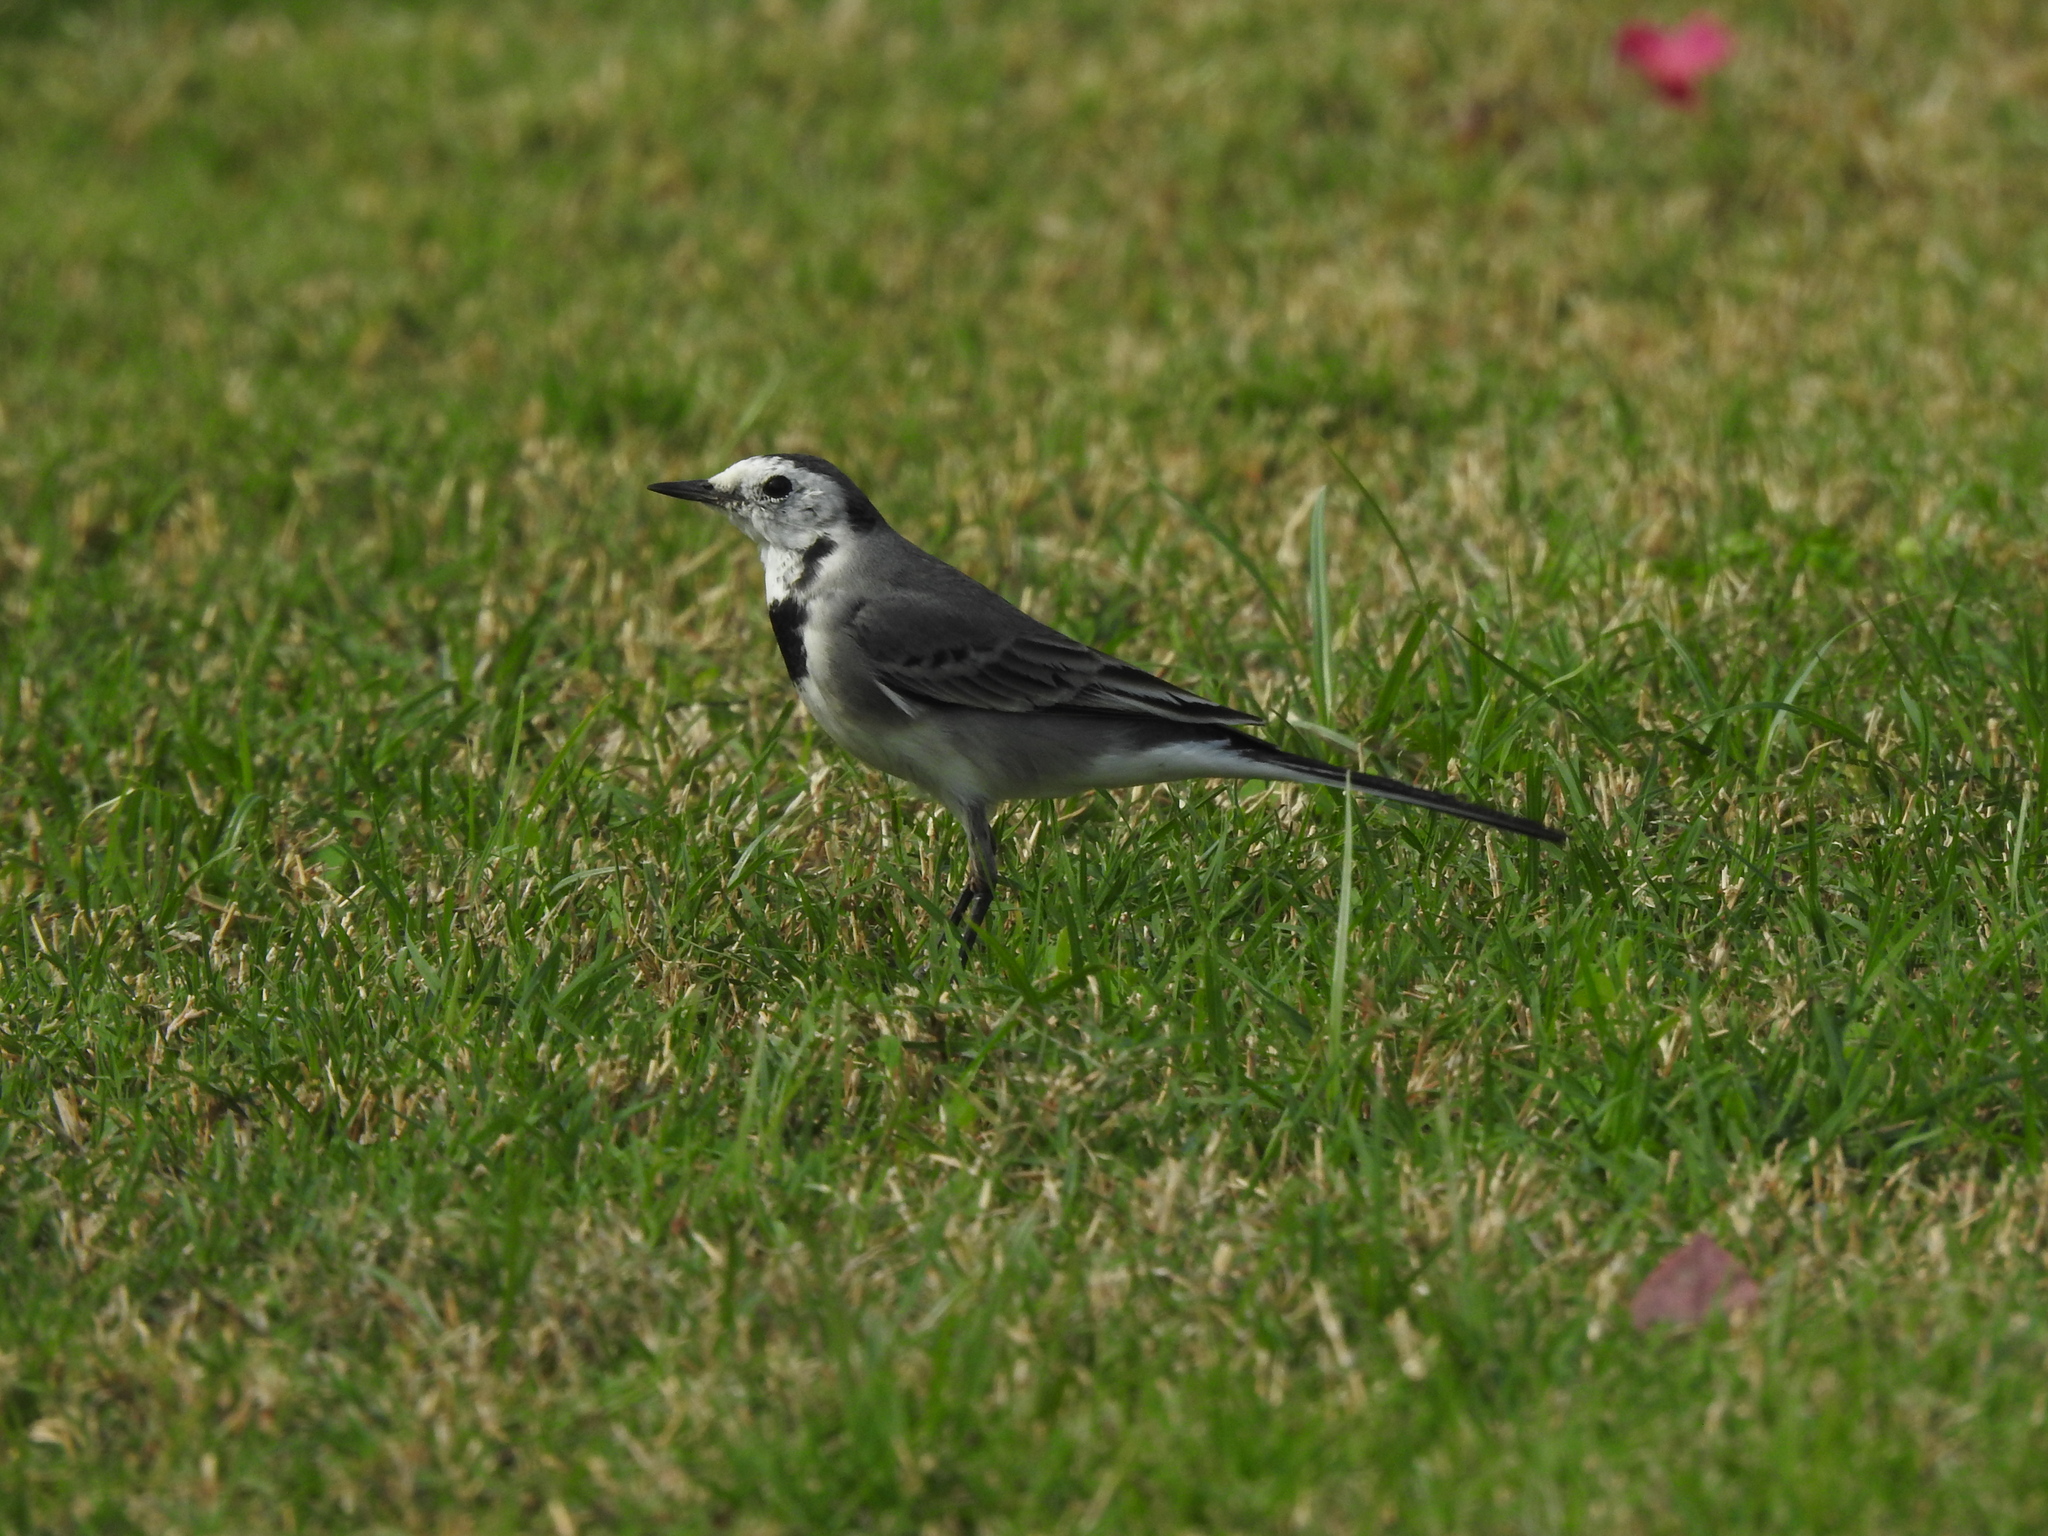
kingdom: Animalia
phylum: Chordata
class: Aves
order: Passeriformes
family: Motacillidae
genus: Motacilla
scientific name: Motacilla alba
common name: White wagtail
